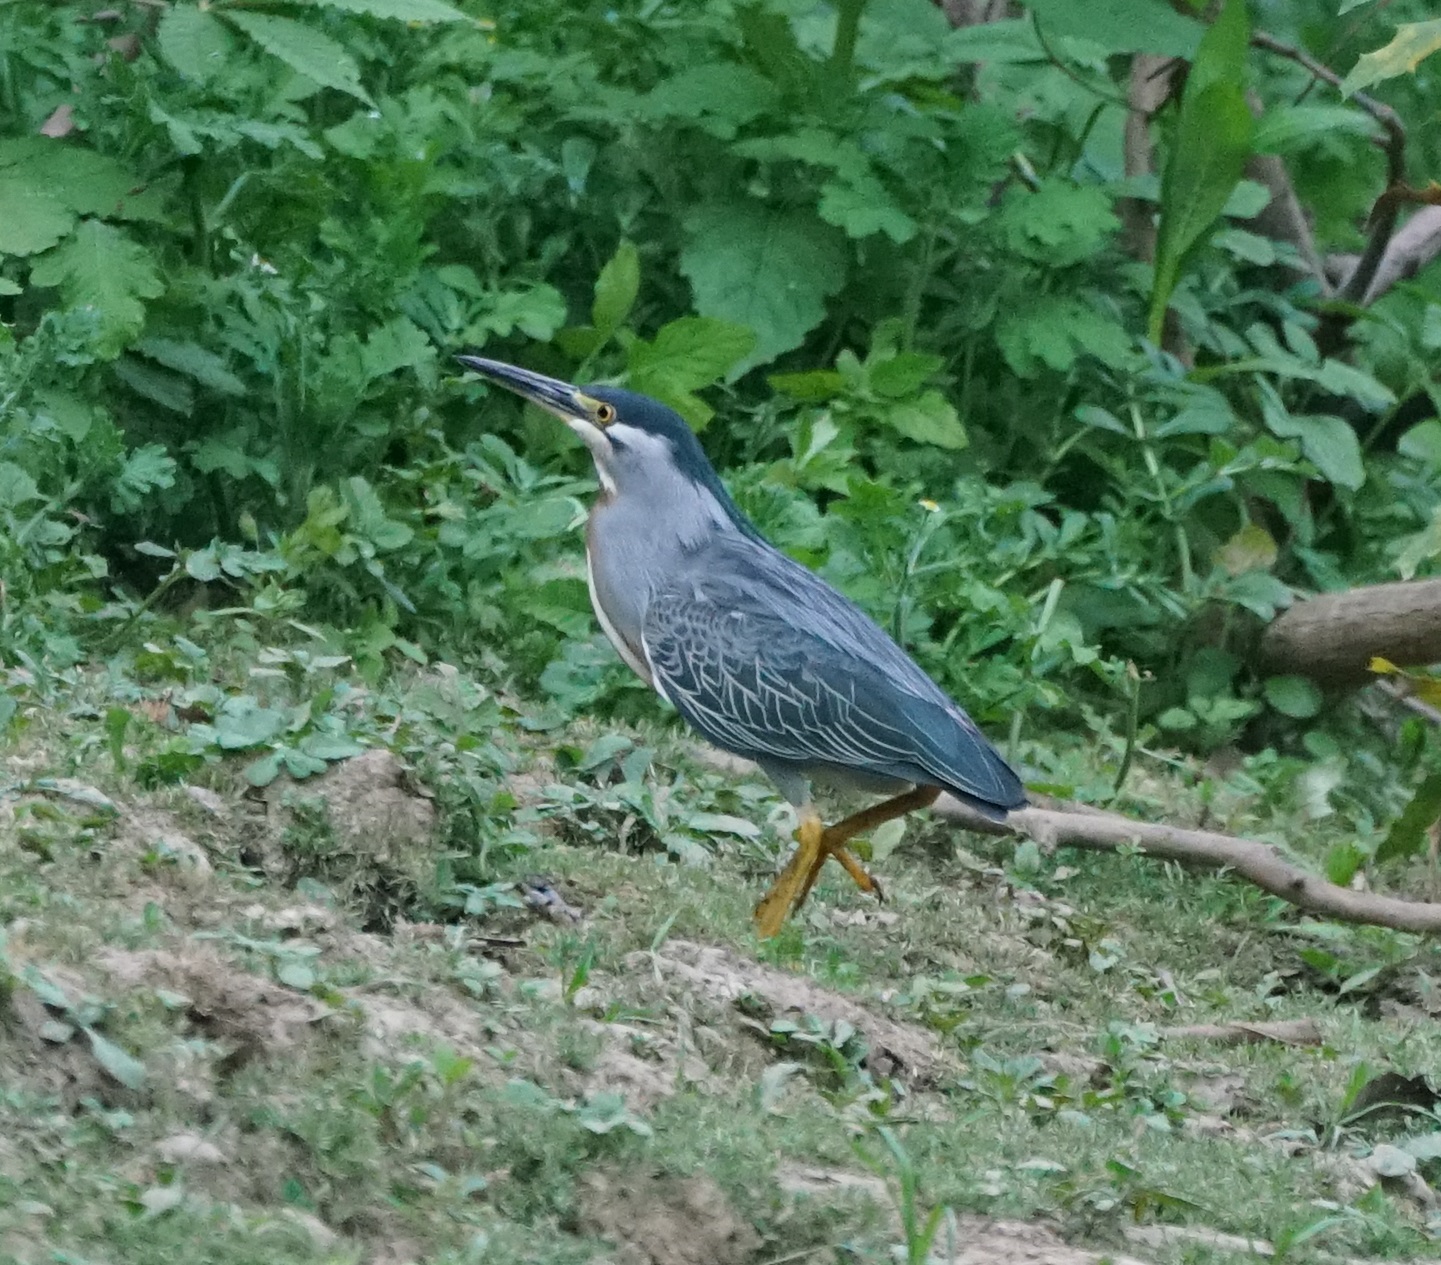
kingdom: Animalia
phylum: Chordata
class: Aves
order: Pelecaniformes
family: Ardeidae
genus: Butorides
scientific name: Butorides striata
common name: Striated heron
